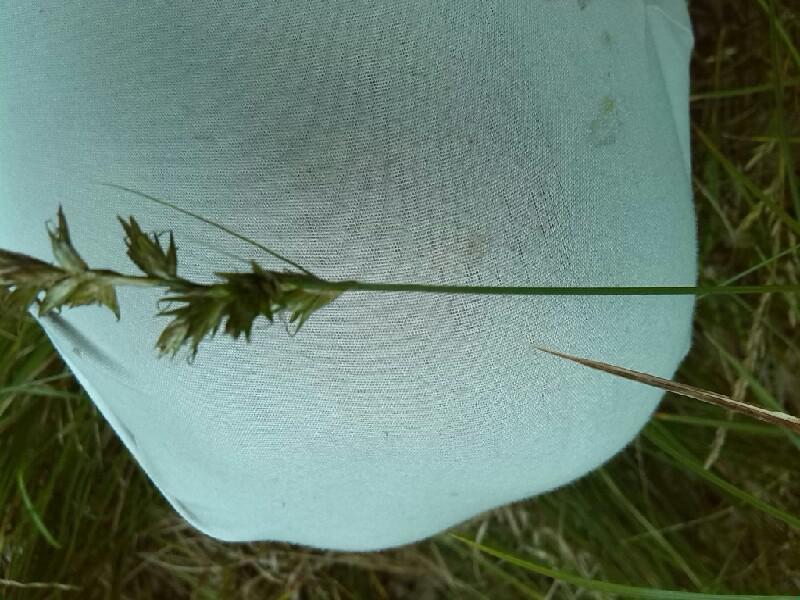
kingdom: Plantae
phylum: Tracheophyta
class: Liliopsida
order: Poales
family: Cyperaceae
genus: Carex
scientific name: Carex pseudobrizoides
